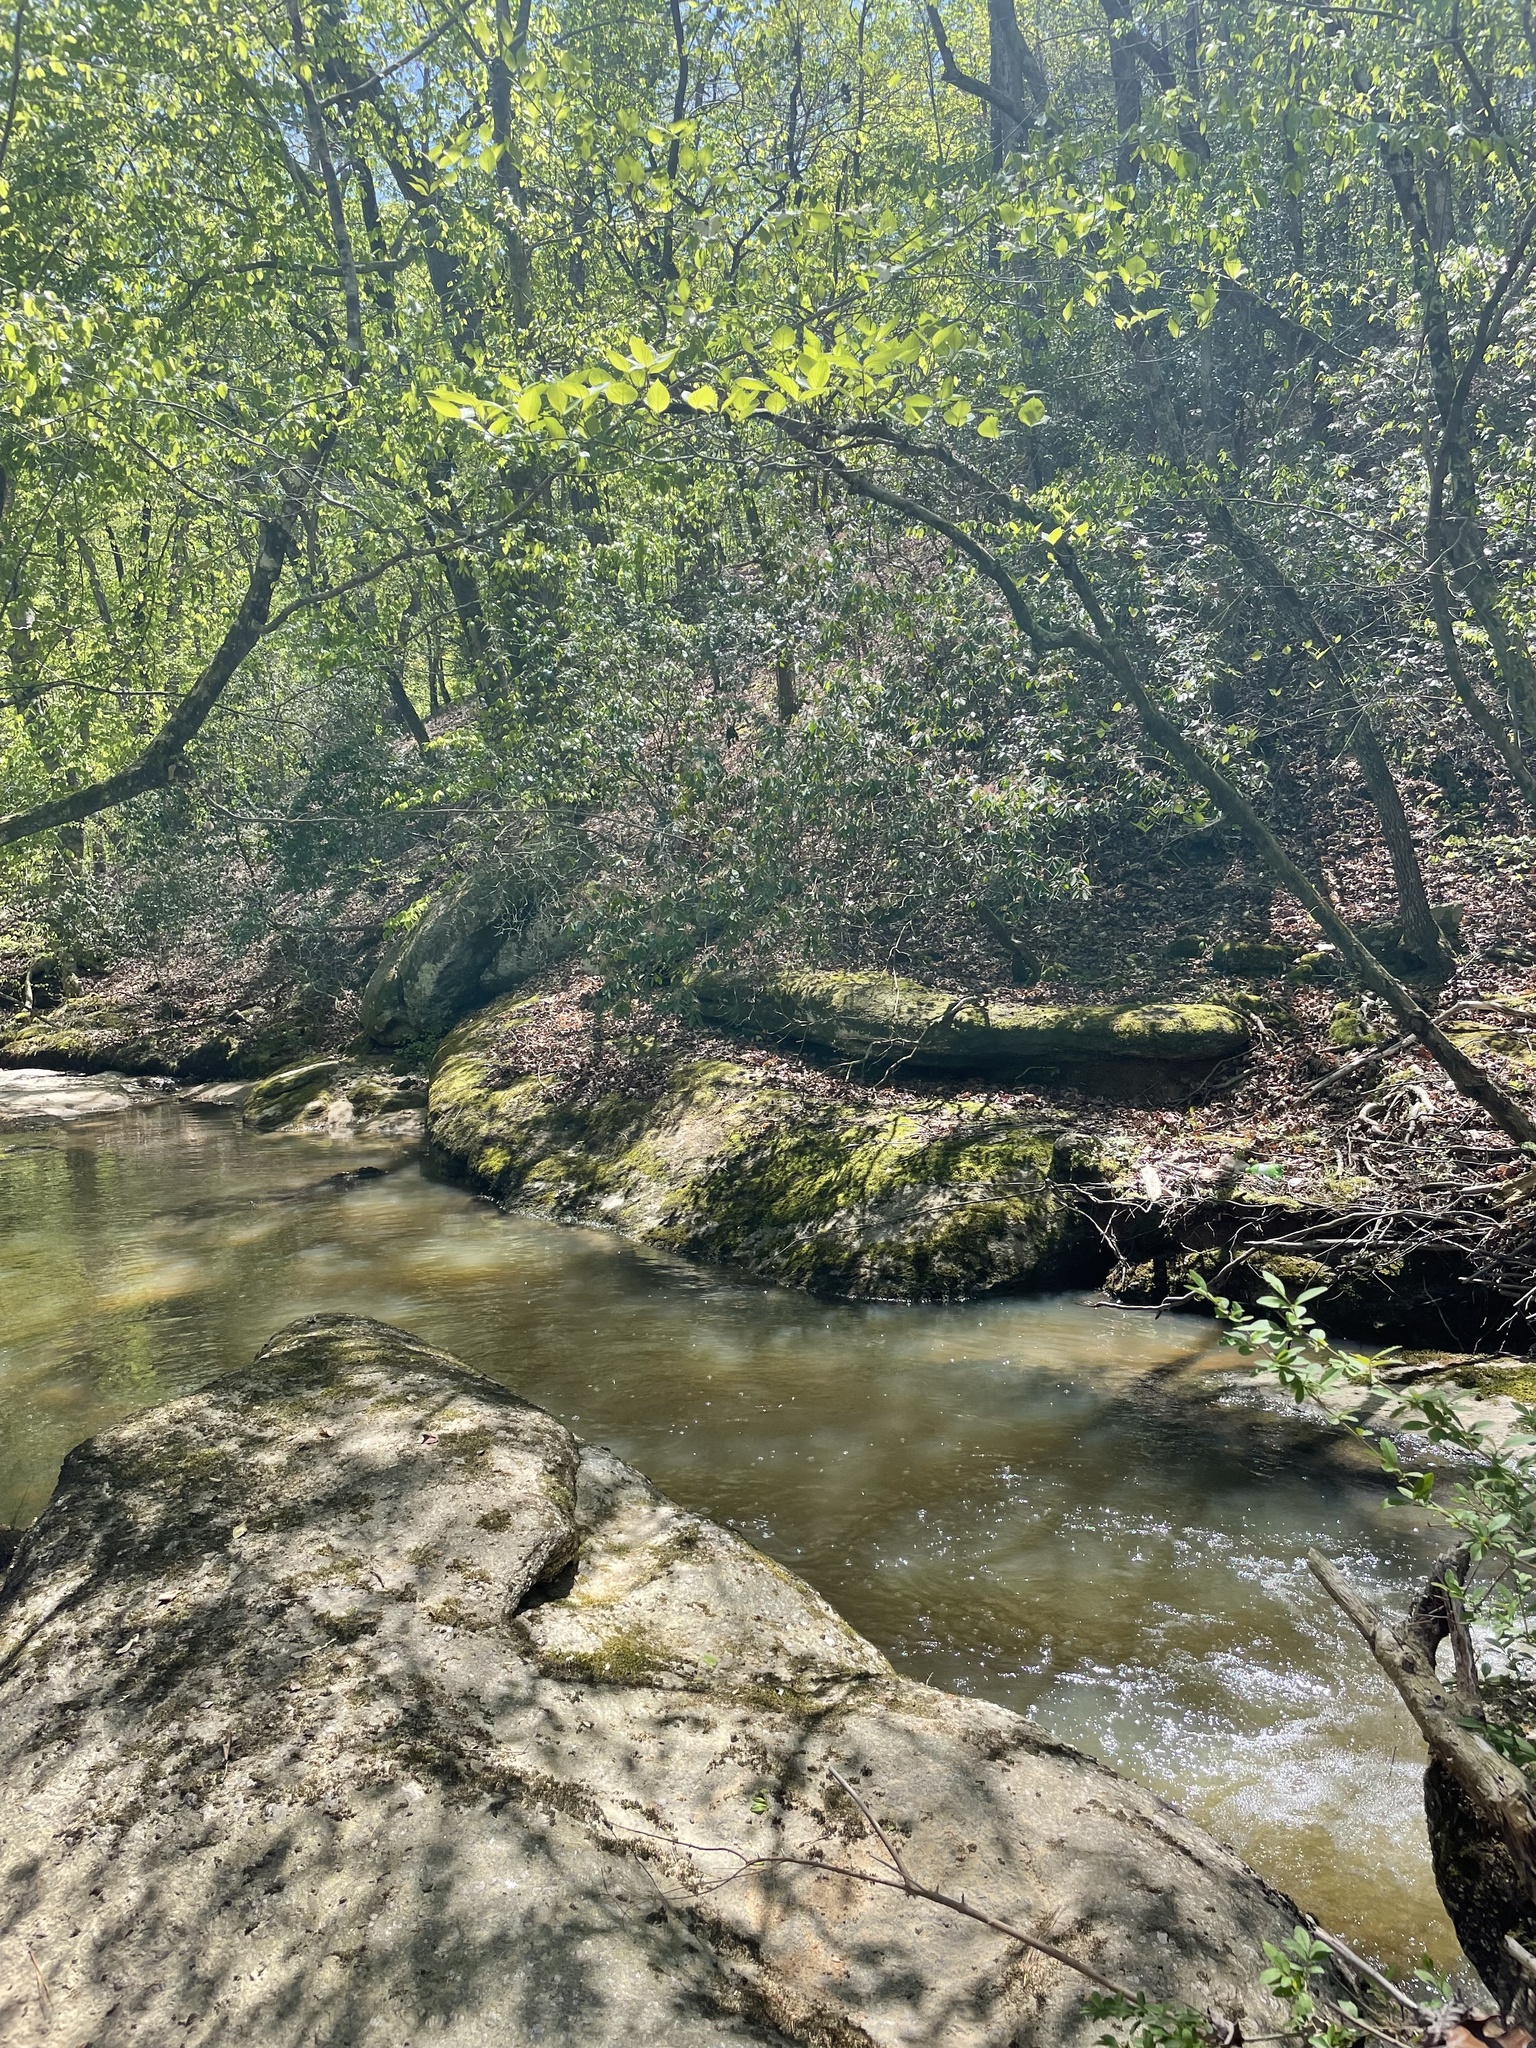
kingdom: Plantae
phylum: Tracheophyta
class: Magnoliopsida
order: Ericales
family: Ericaceae
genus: Rhododendron
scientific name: Rhododendron periclymenoides
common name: Election-pink
